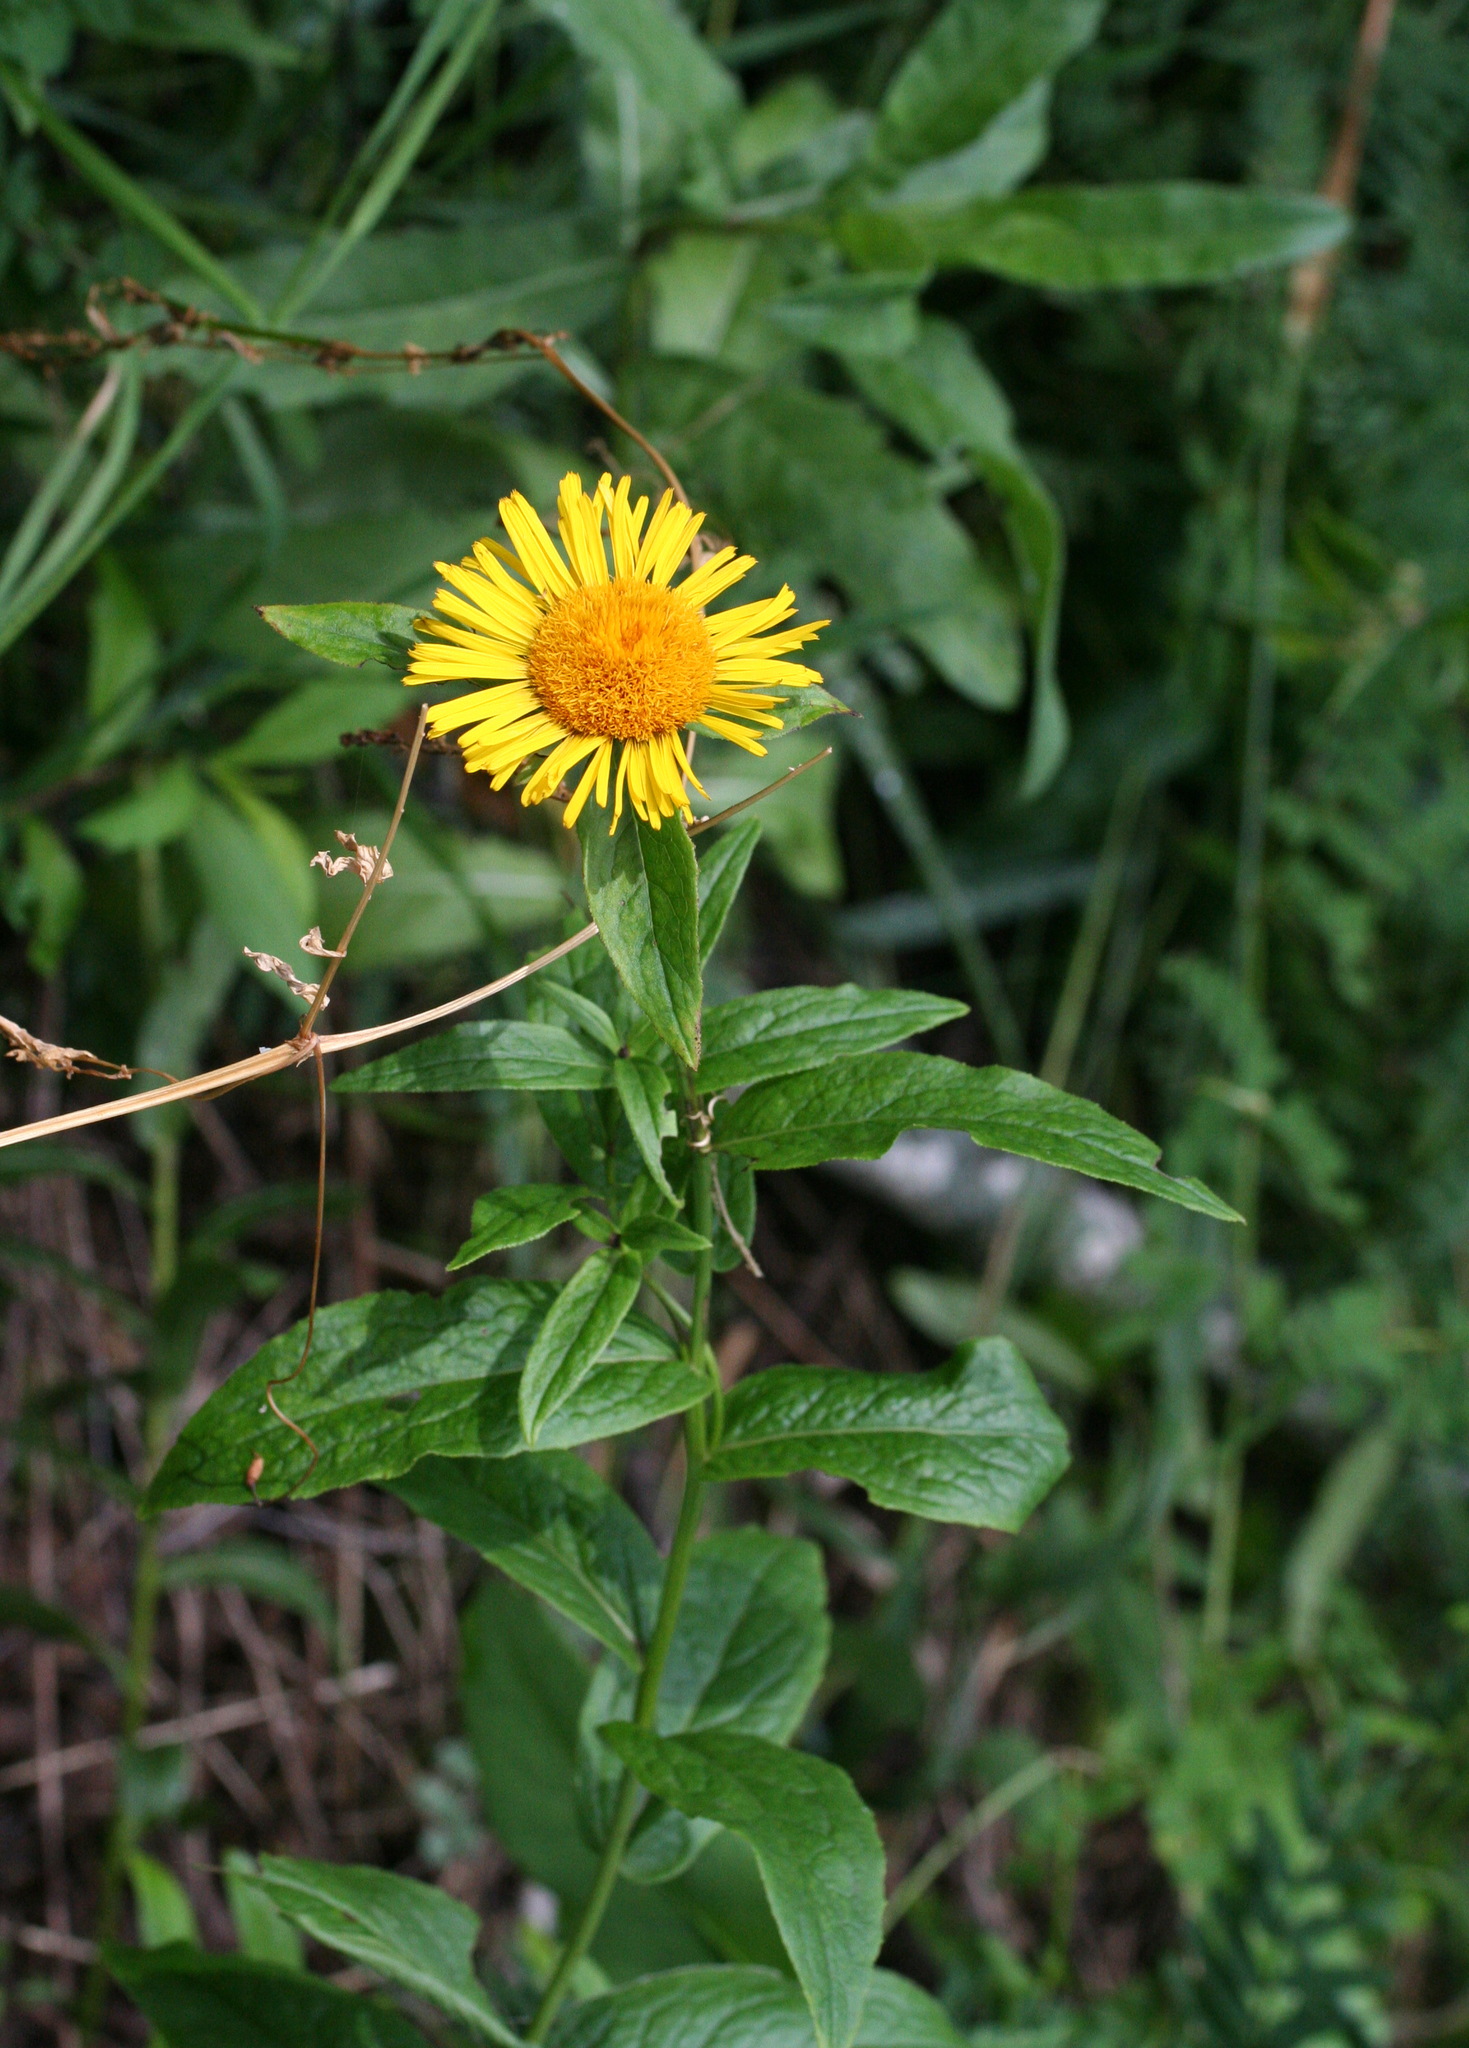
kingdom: Plantae
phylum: Tracheophyta
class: Magnoliopsida
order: Asterales
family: Asteraceae
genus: Pentanema
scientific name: Pentanema salicinum
